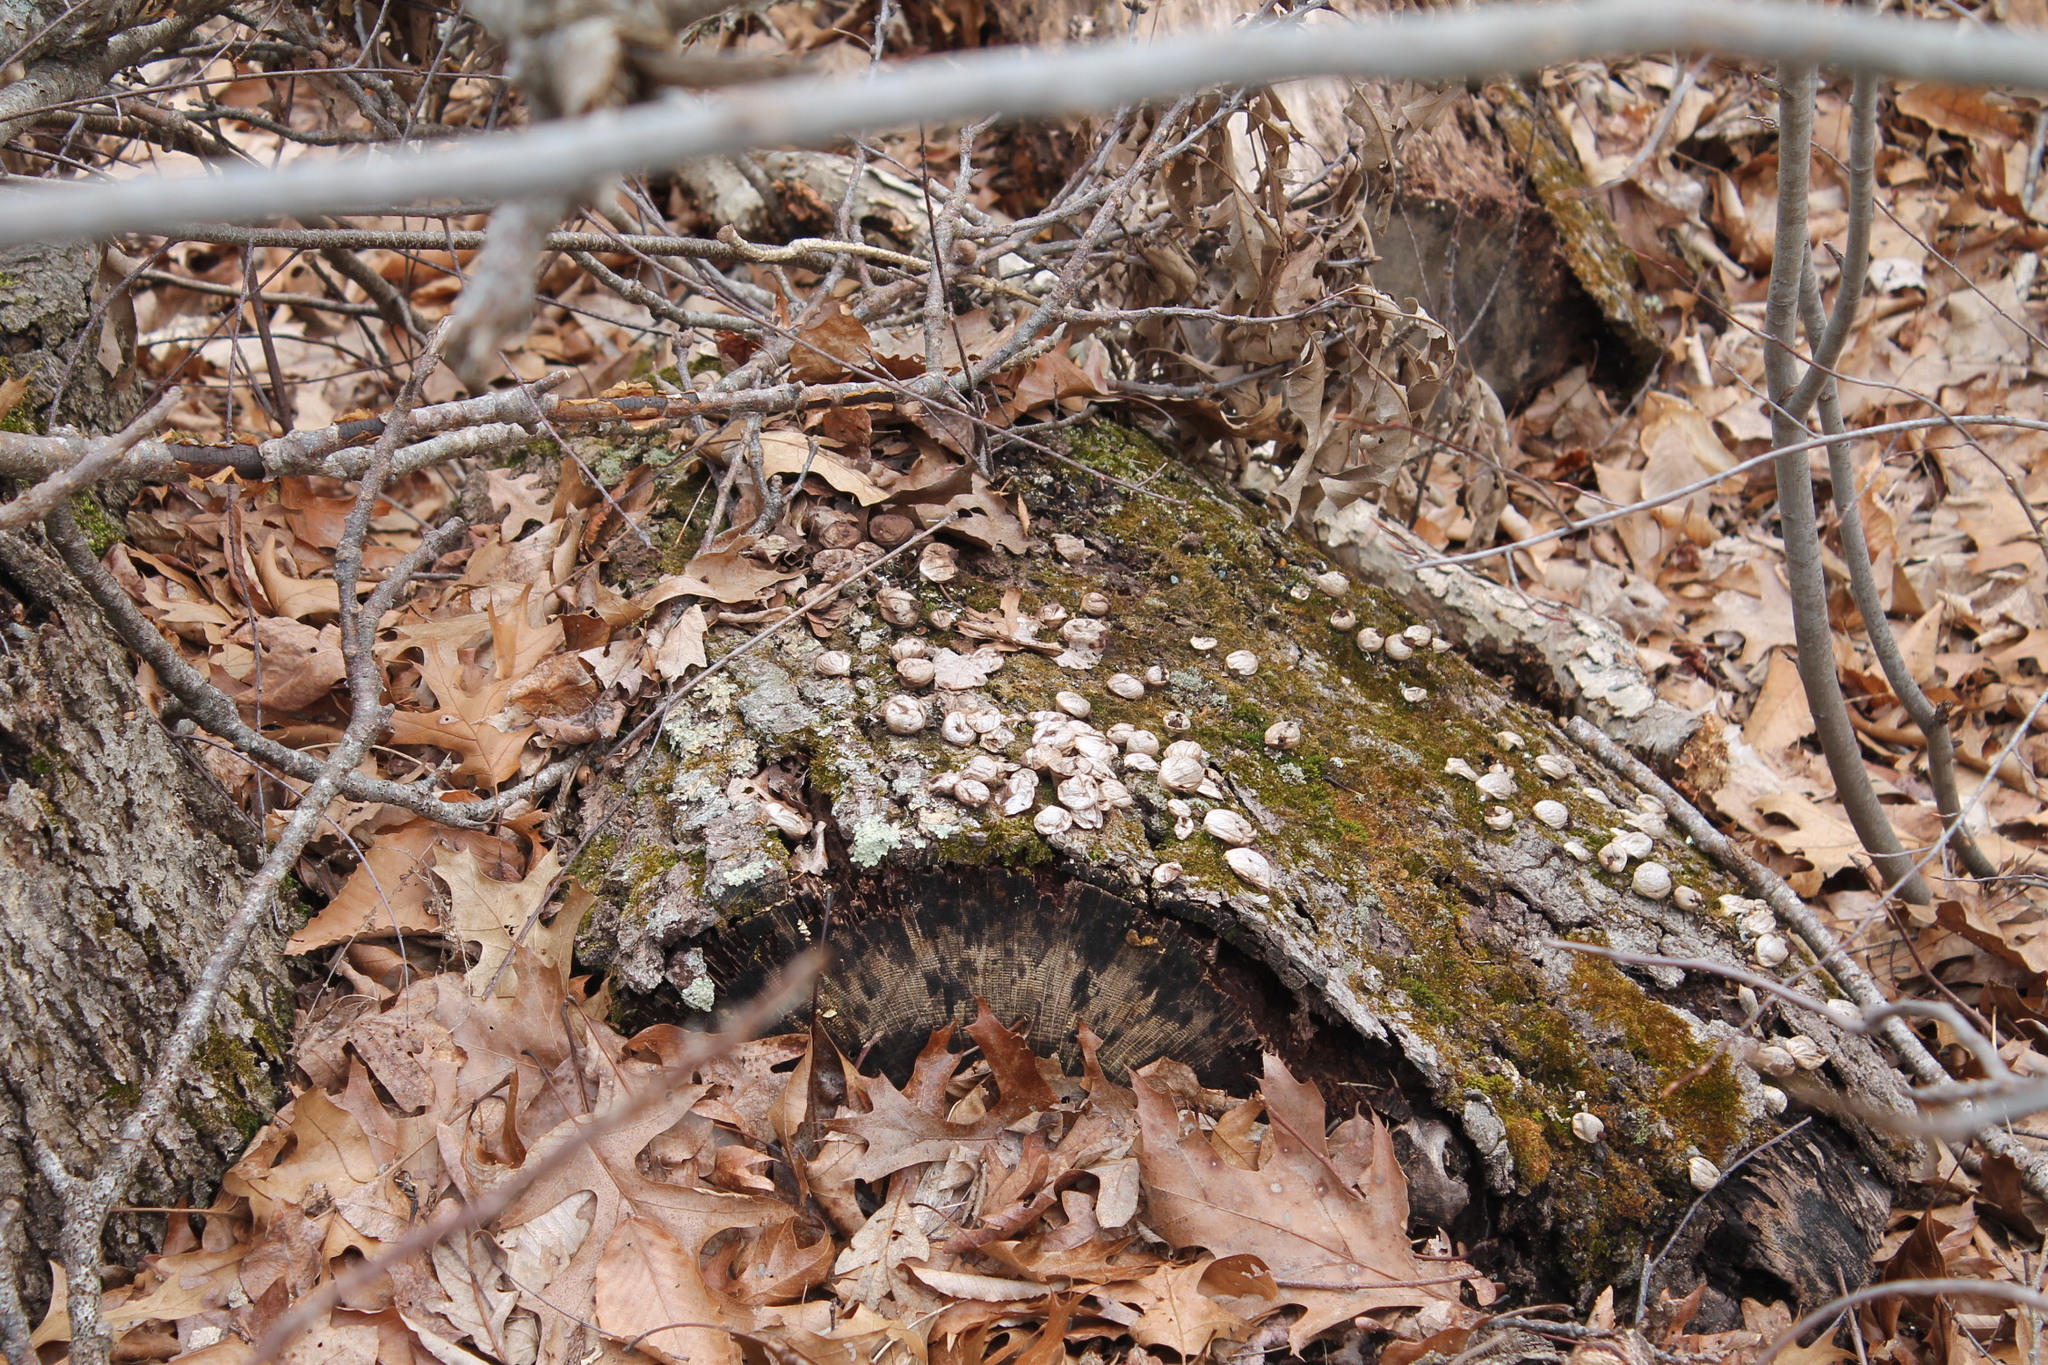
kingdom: Fungi
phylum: Basidiomycota
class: Agaricomycetes
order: Agaricales
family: Lycoperdaceae
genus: Apioperdon
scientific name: Apioperdon pyriforme
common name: Pear-shaped puffball
